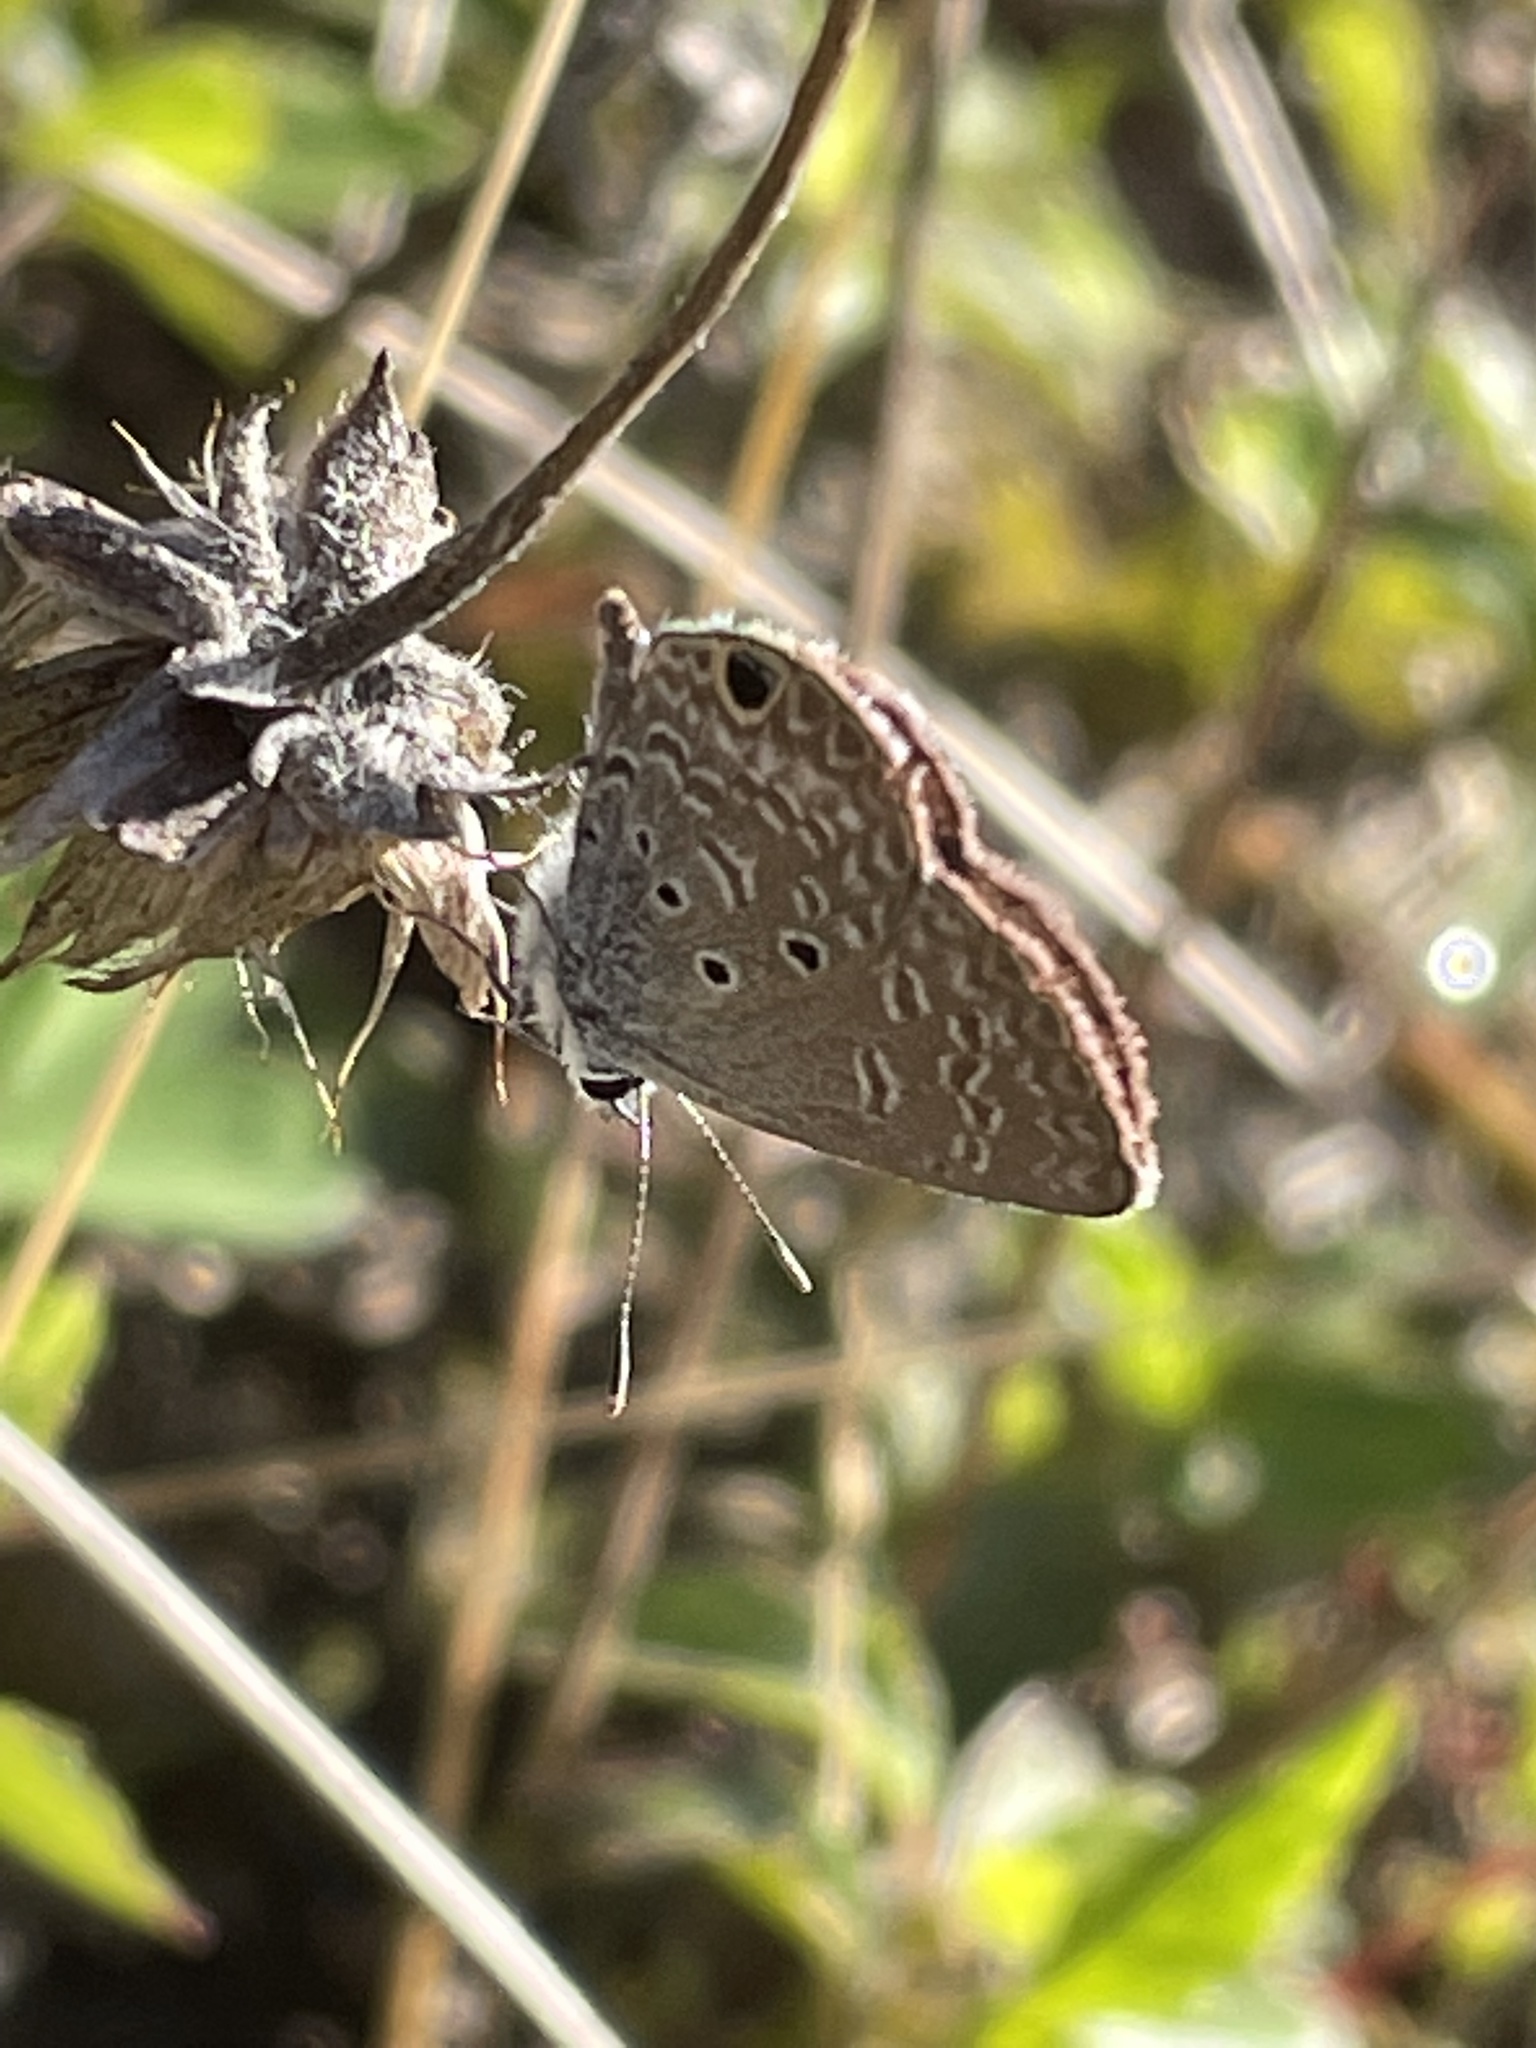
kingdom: Animalia
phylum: Arthropoda
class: Insecta
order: Lepidoptera
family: Lycaenidae
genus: Hemiargus
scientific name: Hemiargus ceraunus
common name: Ceraunus blue
